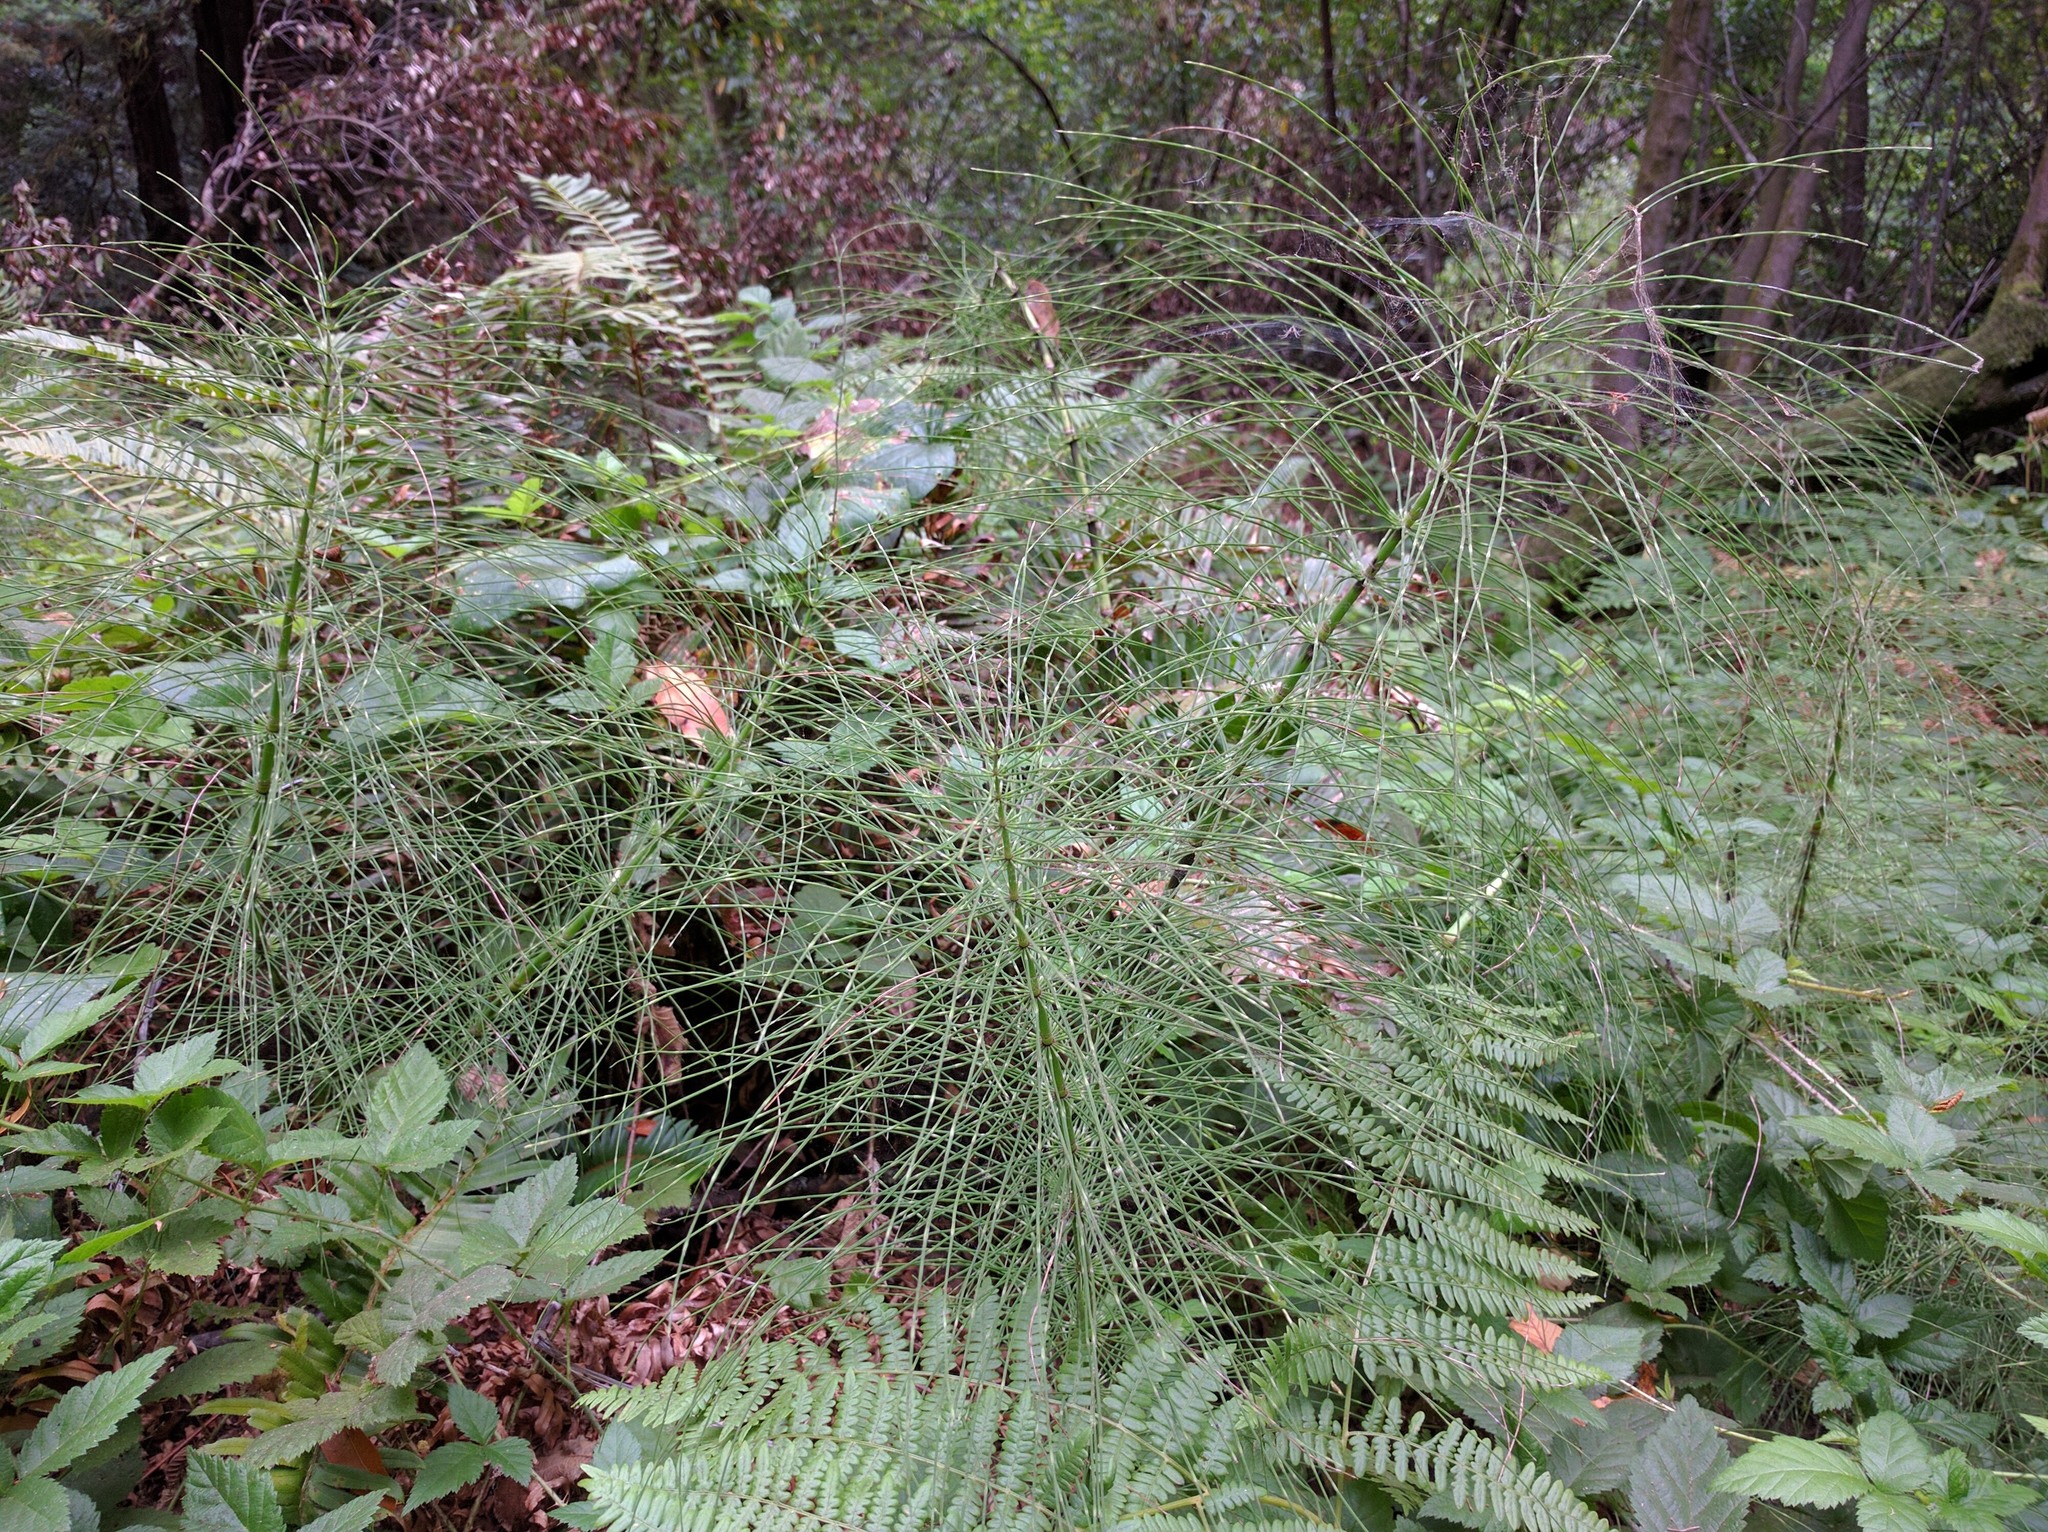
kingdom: Plantae
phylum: Tracheophyta
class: Polypodiopsida
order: Equisetales
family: Equisetaceae
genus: Equisetum
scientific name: Equisetum telmateia
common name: Great horsetail
